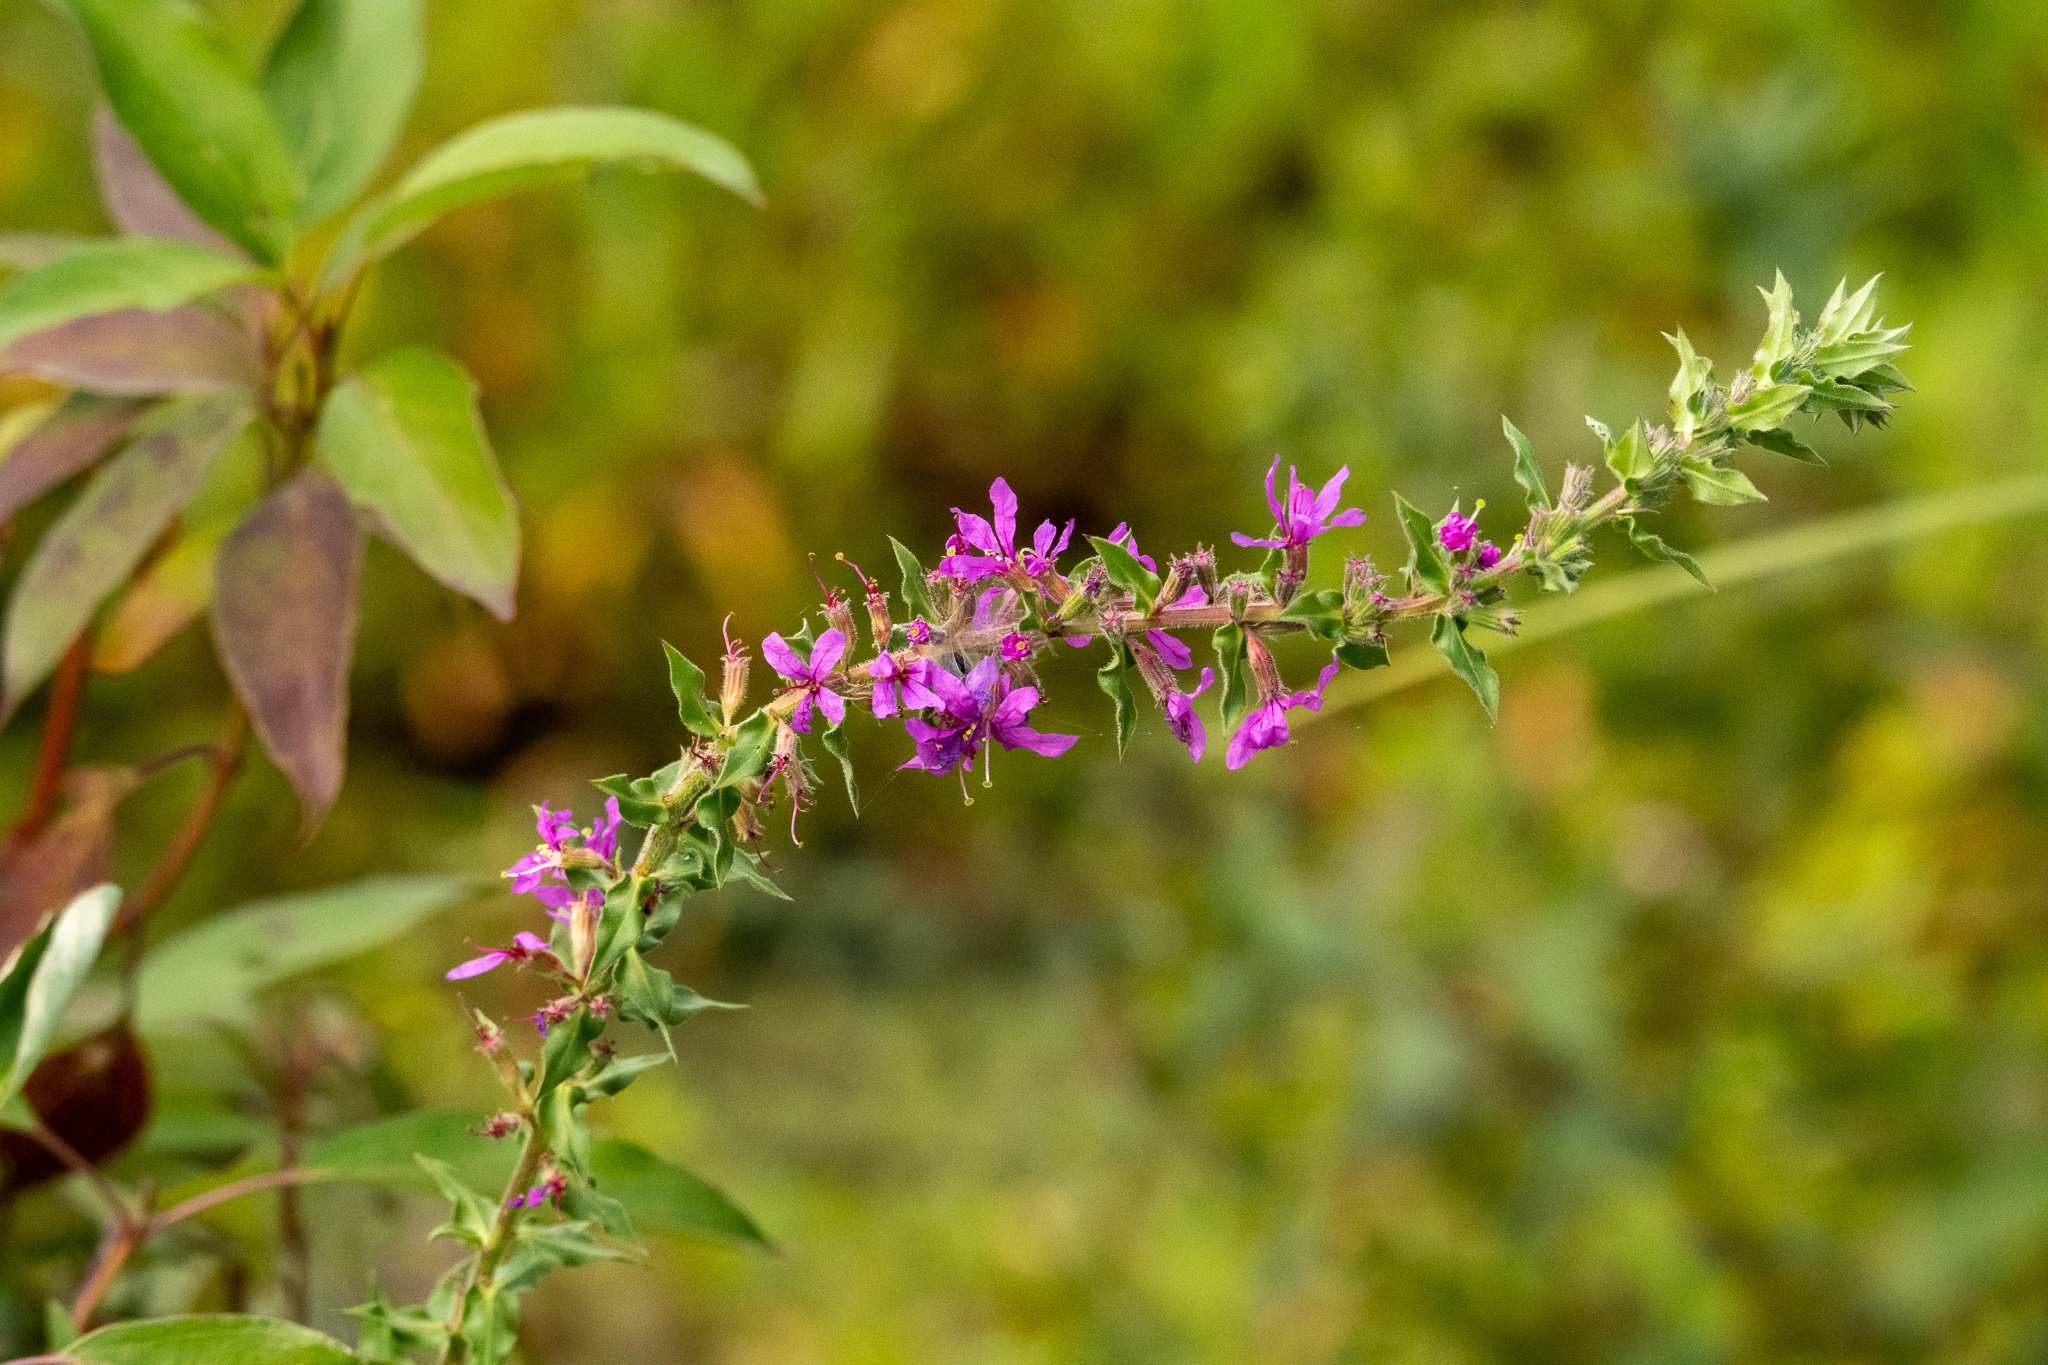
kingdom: Plantae
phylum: Tracheophyta
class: Magnoliopsida
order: Myrtales
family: Lythraceae
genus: Lythrum
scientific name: Lythrum salicaria
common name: Purple loosestrife
